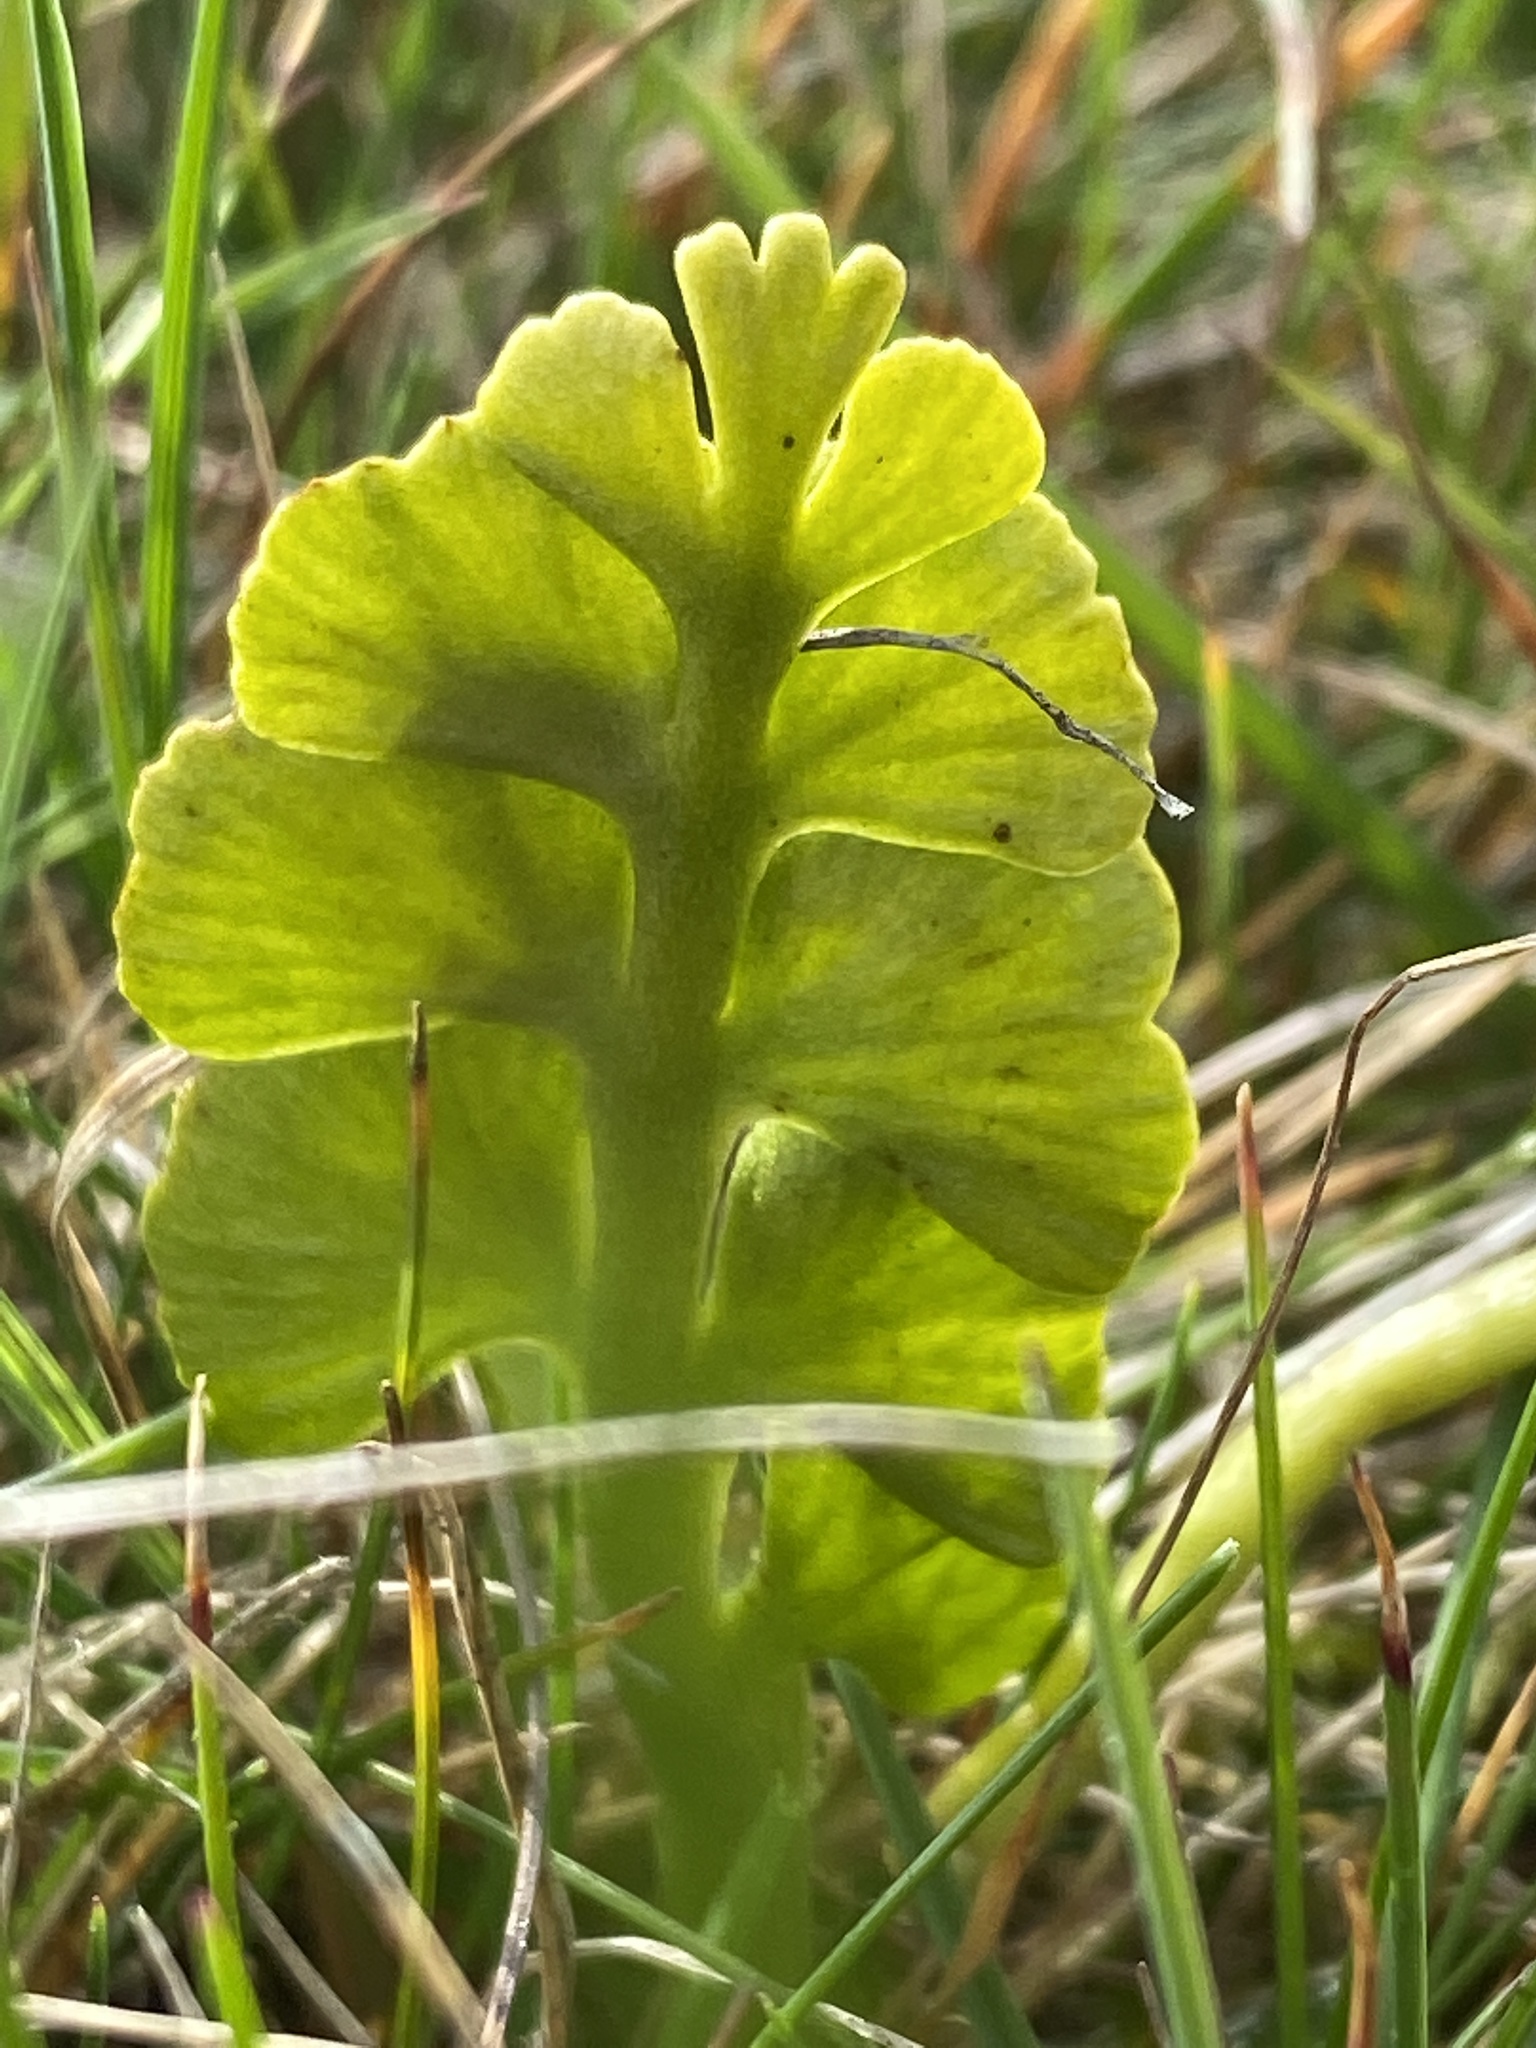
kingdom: Plantae
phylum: Tracheophyta
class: Polypodiopsida
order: Ophioglossales
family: Ophioglossaceae
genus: Botrychium
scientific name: Botrychium lunaria
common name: Moonwort
